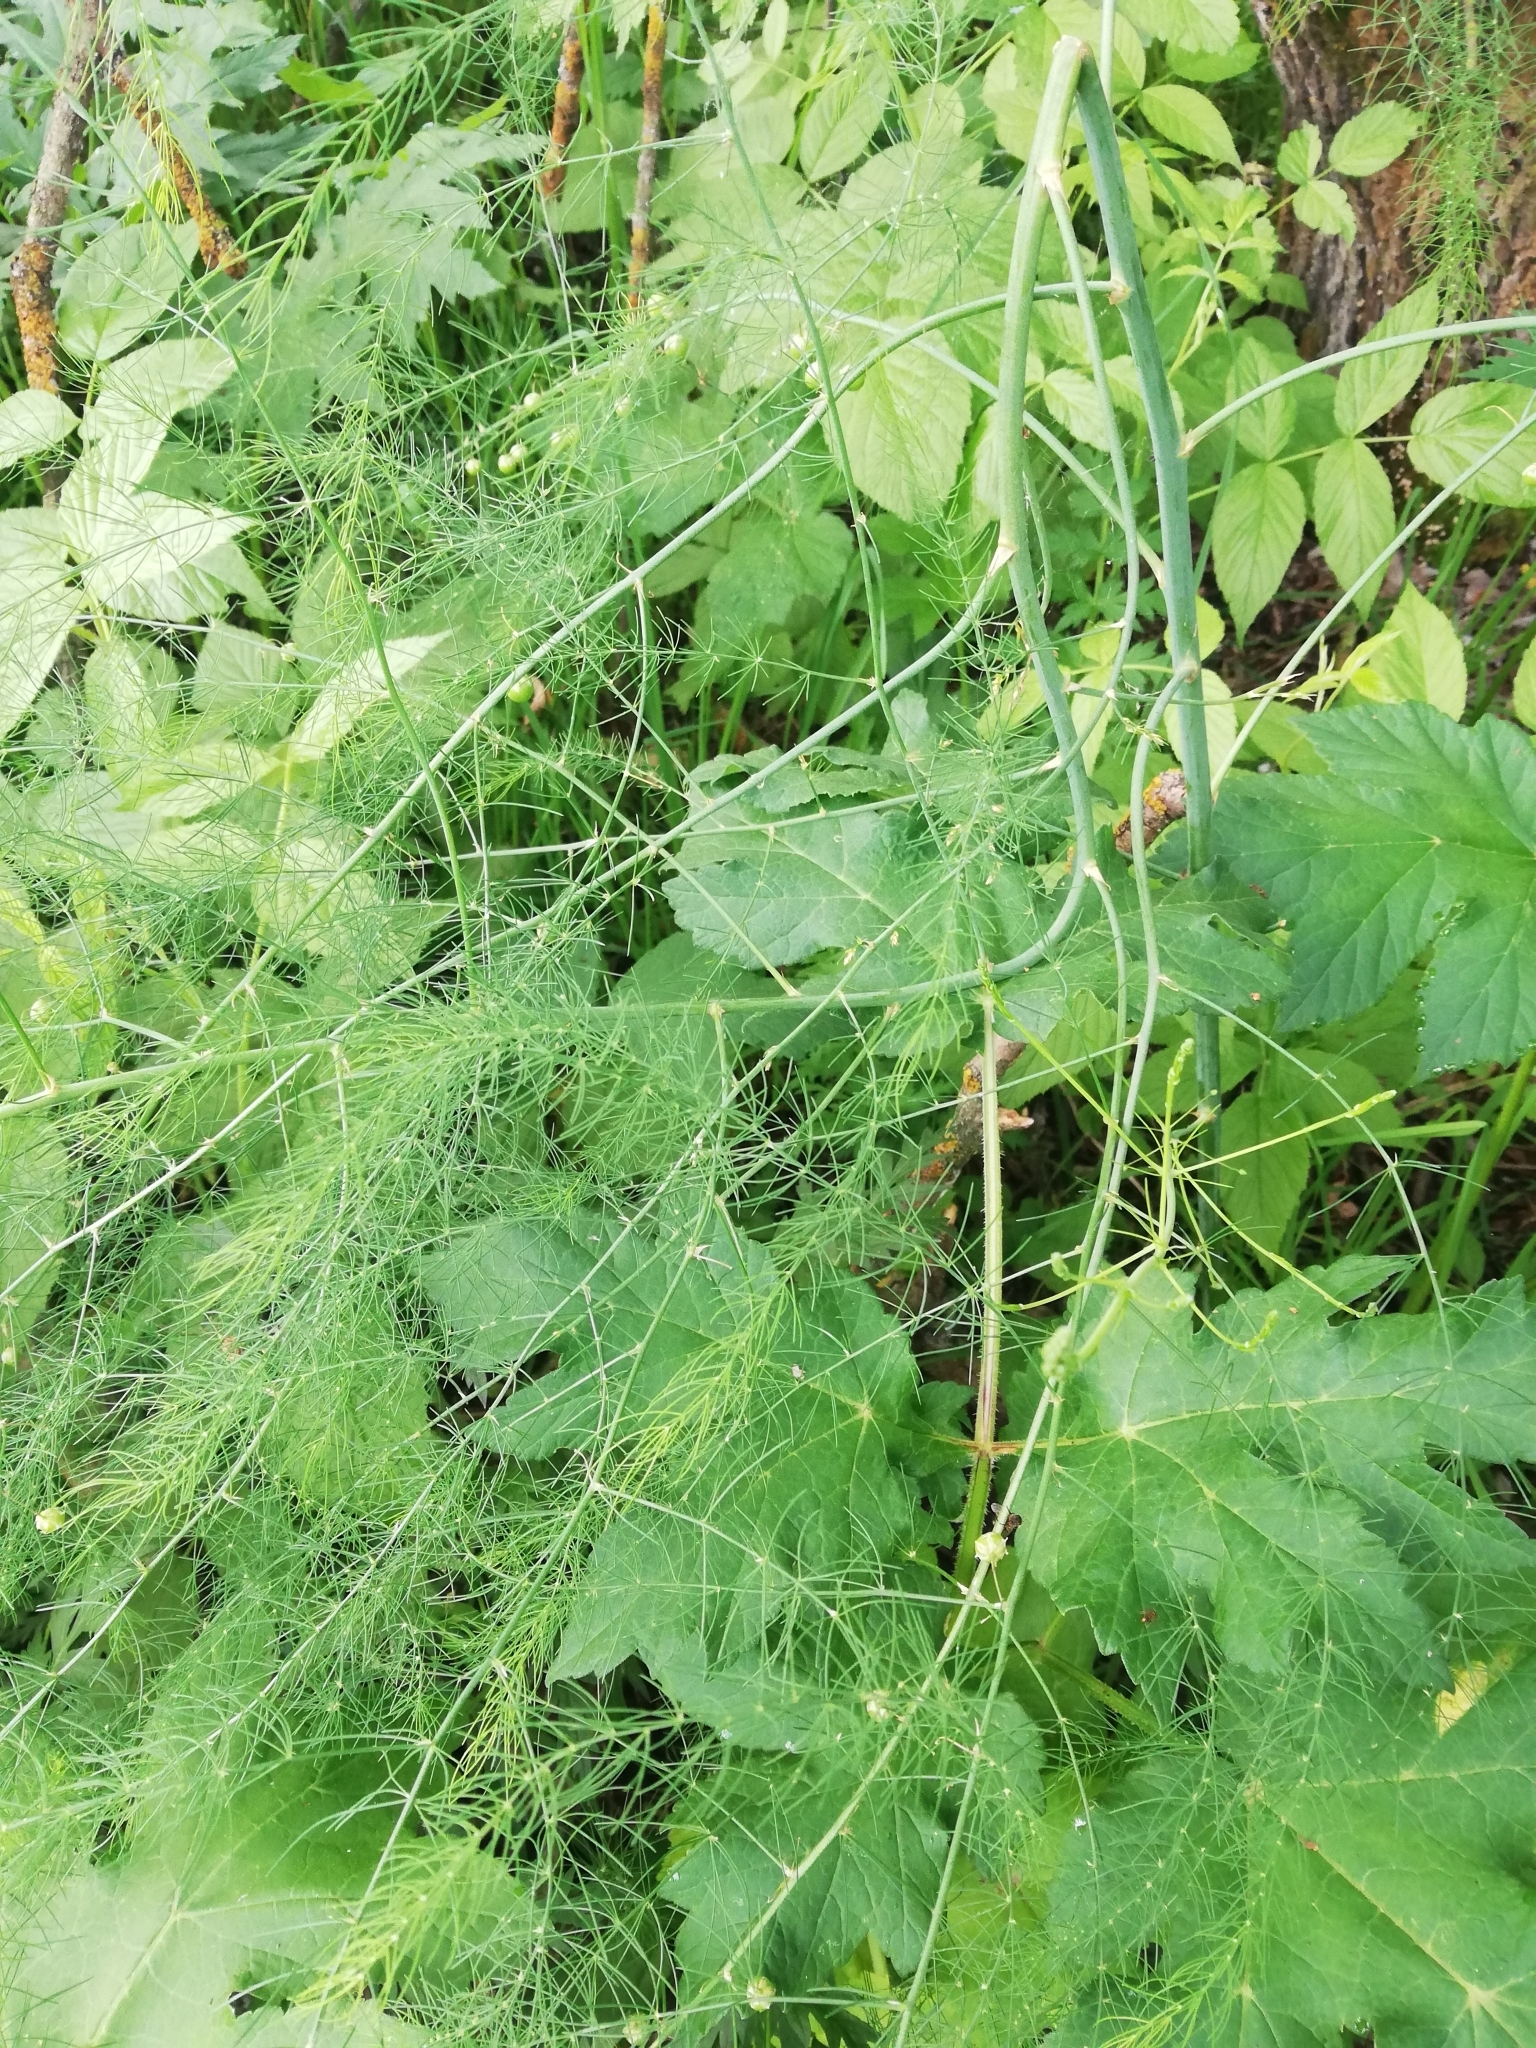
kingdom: Plantae
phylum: Tracheophyta
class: Liliopsida
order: Asparagales
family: Asparagaceae
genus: Asparagus
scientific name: Asparagus officinalis
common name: Garden asparagus
